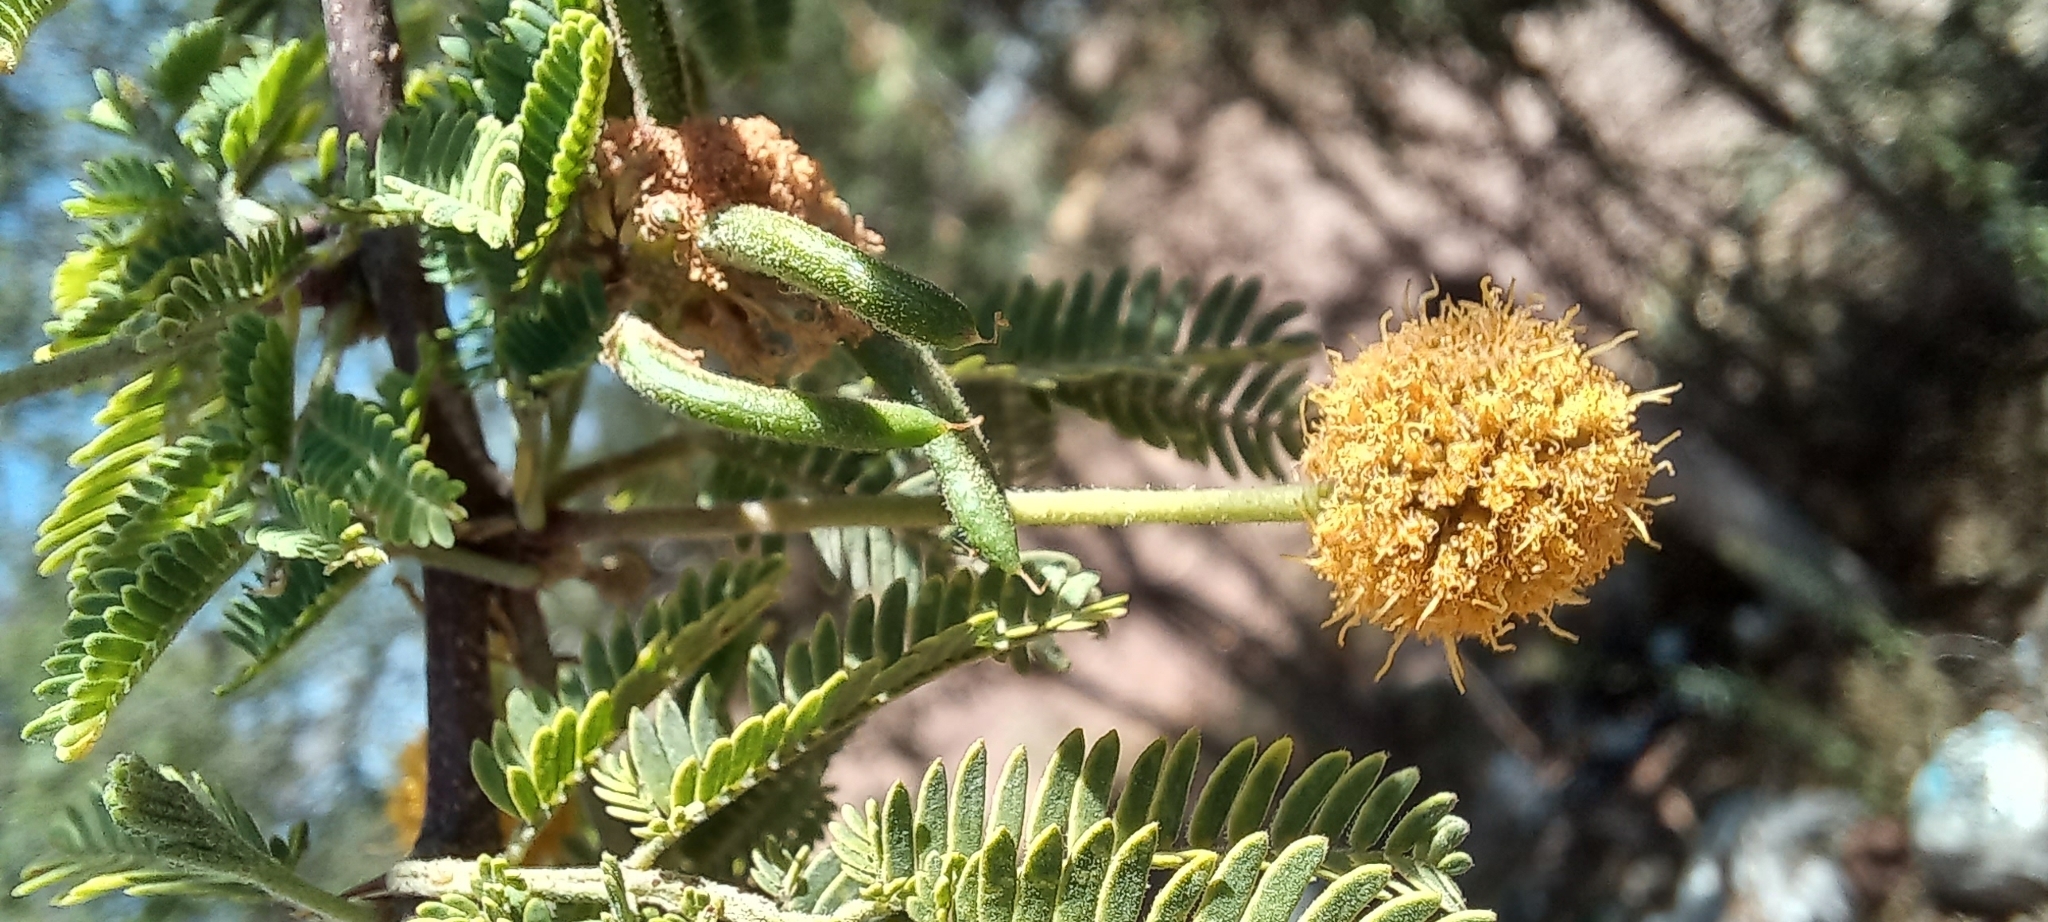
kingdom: Plantae
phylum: Tracheophyta
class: Magnoliopsida
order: Fabales
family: Fabaceae
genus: Vachellia
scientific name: Vachellia farnesiana
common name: Sweet acacia
